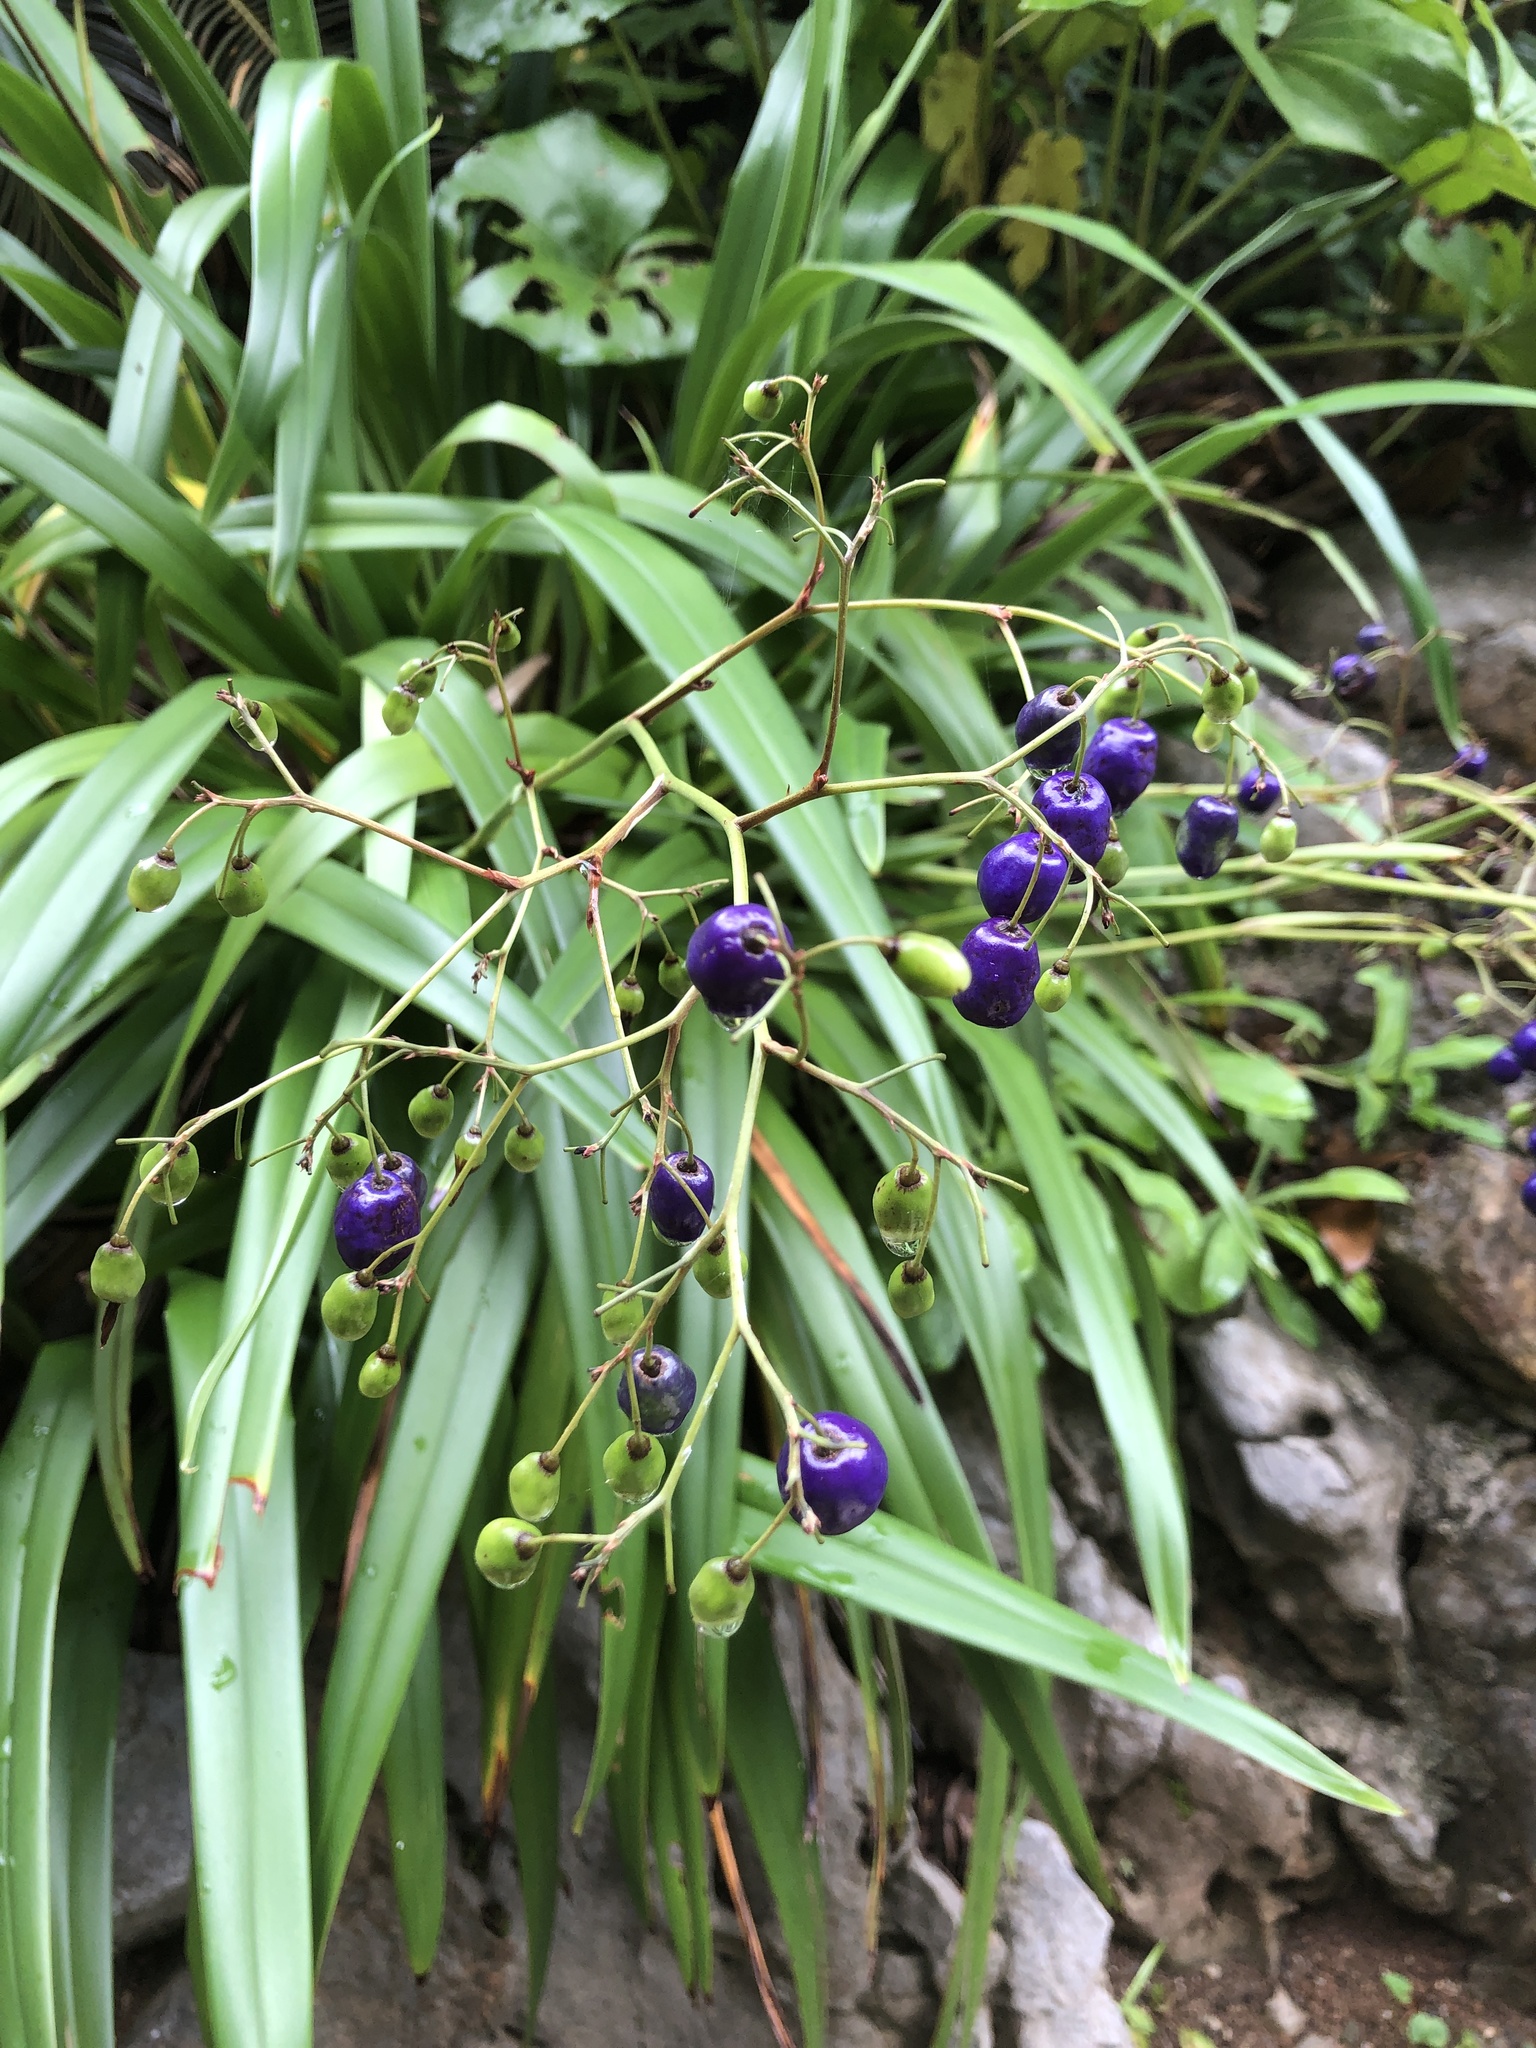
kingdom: Plantae
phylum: Tracheophyta
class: Liliopsida
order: Asparagales
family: Asphodelaceae
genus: Dianella
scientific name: Dianella ensifolia
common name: New zealand lilyplant
